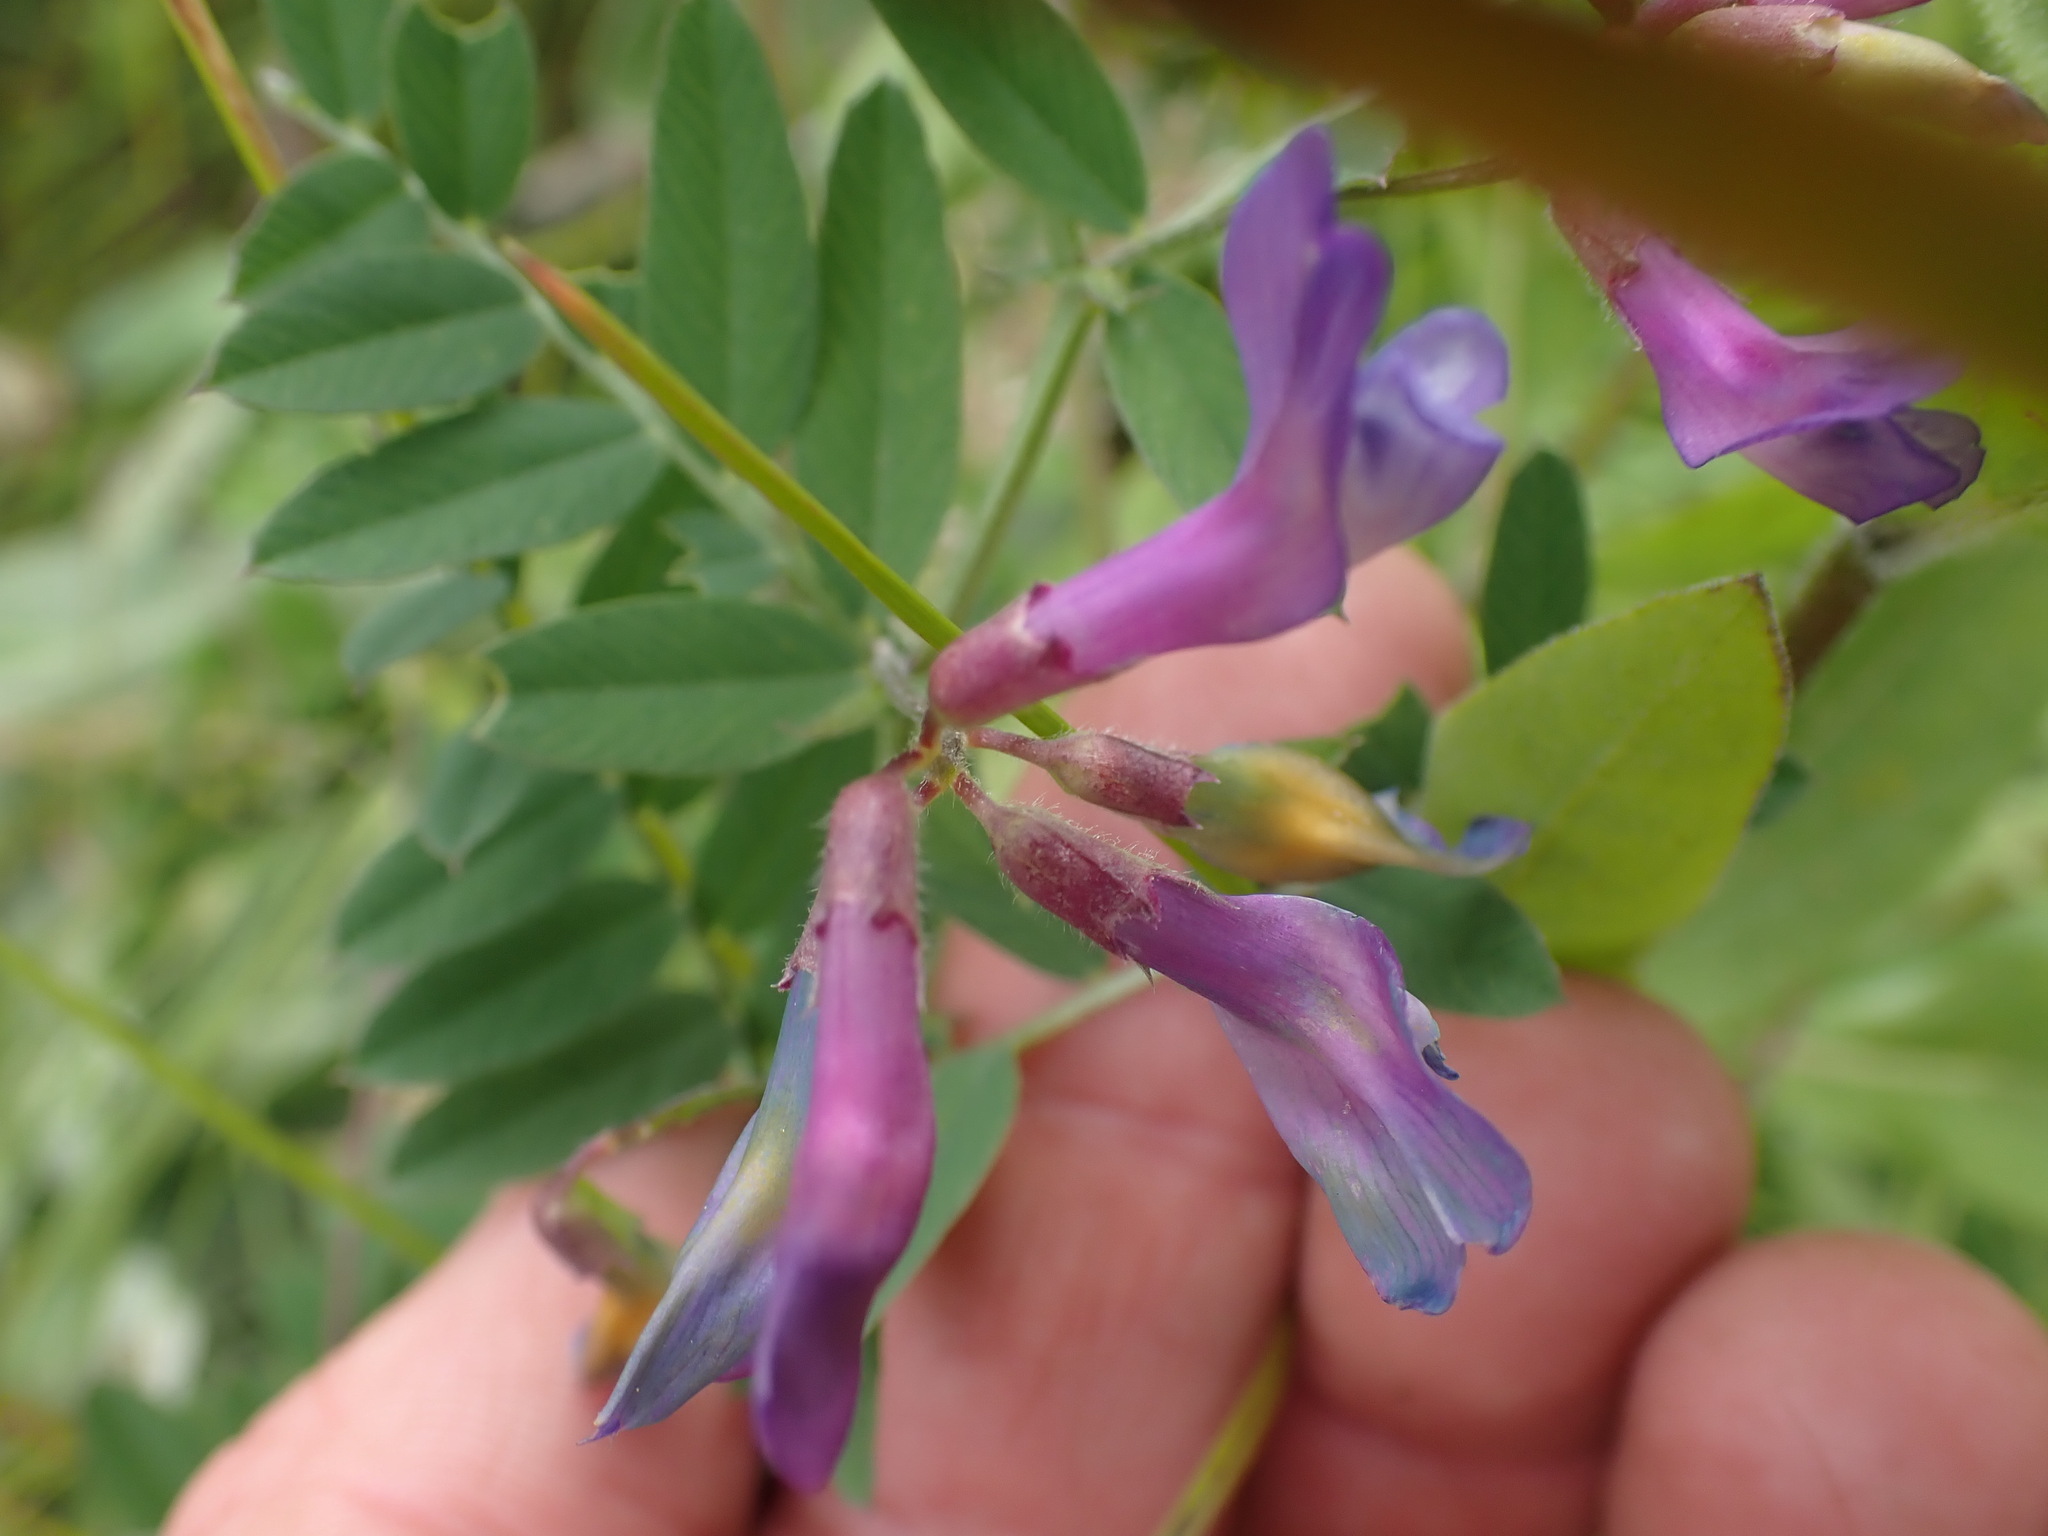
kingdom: Plantae
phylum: Tracheophyta
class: Magnoliopsida
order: Fabales
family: Fabaceae
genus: Vicia
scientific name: Vicia americana
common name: American vetch
